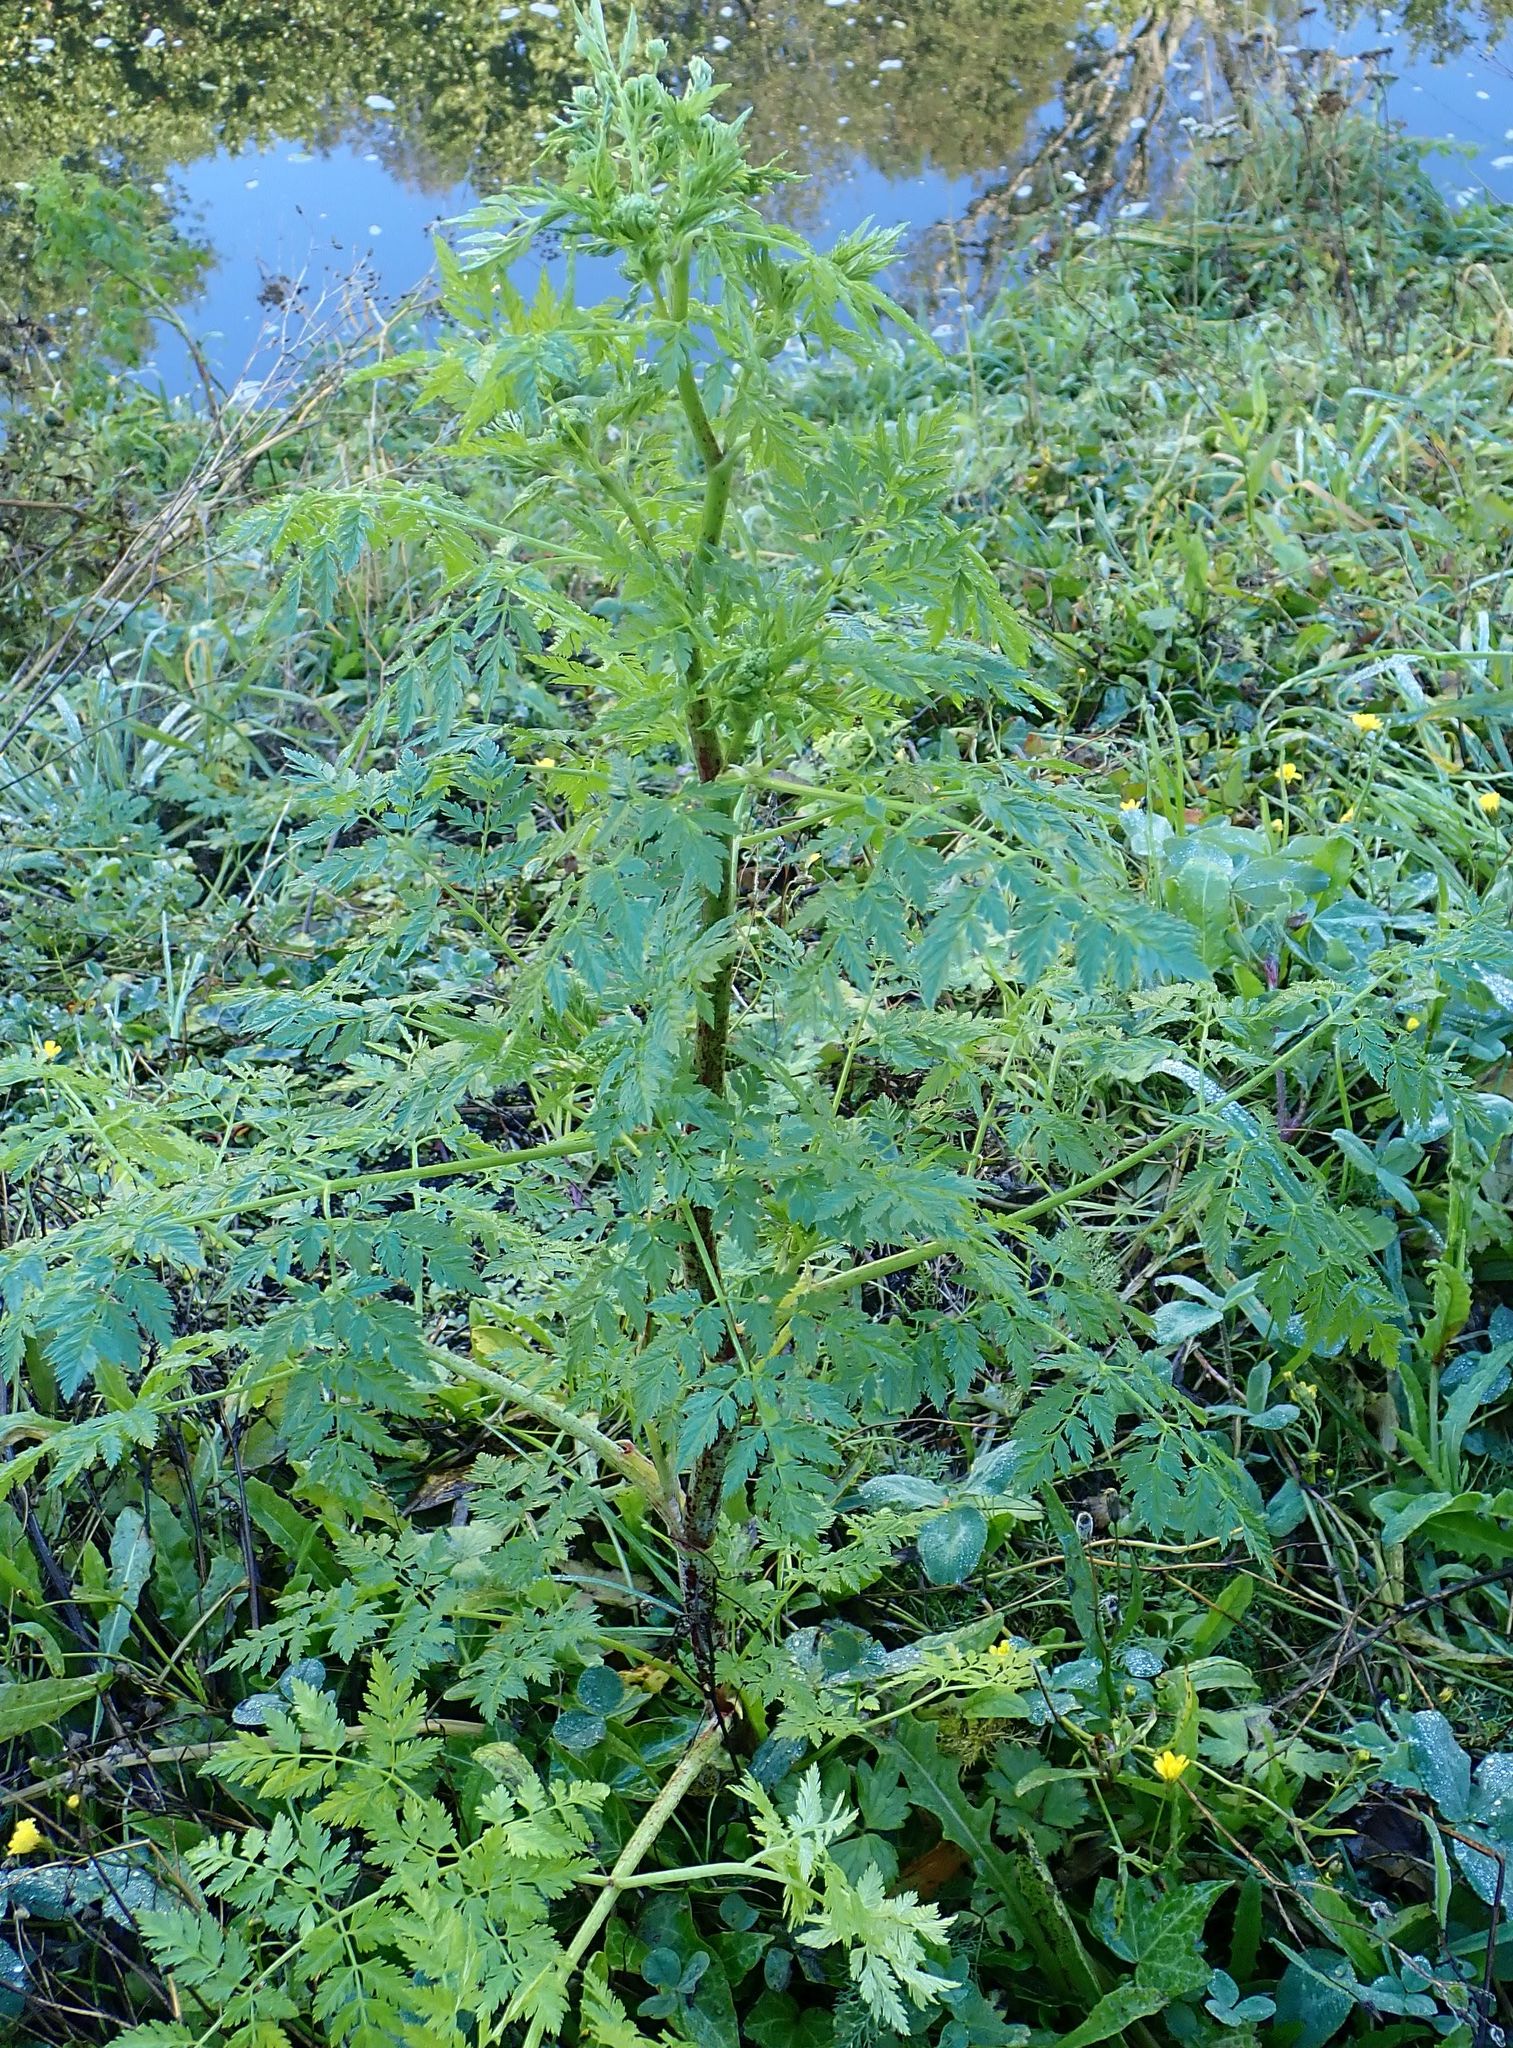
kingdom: Plantae
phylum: Tracheophyta
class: Magnoliopsida
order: Apiales
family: Apiaceae
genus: Conium
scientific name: Conium maculatum
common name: Hemlock
